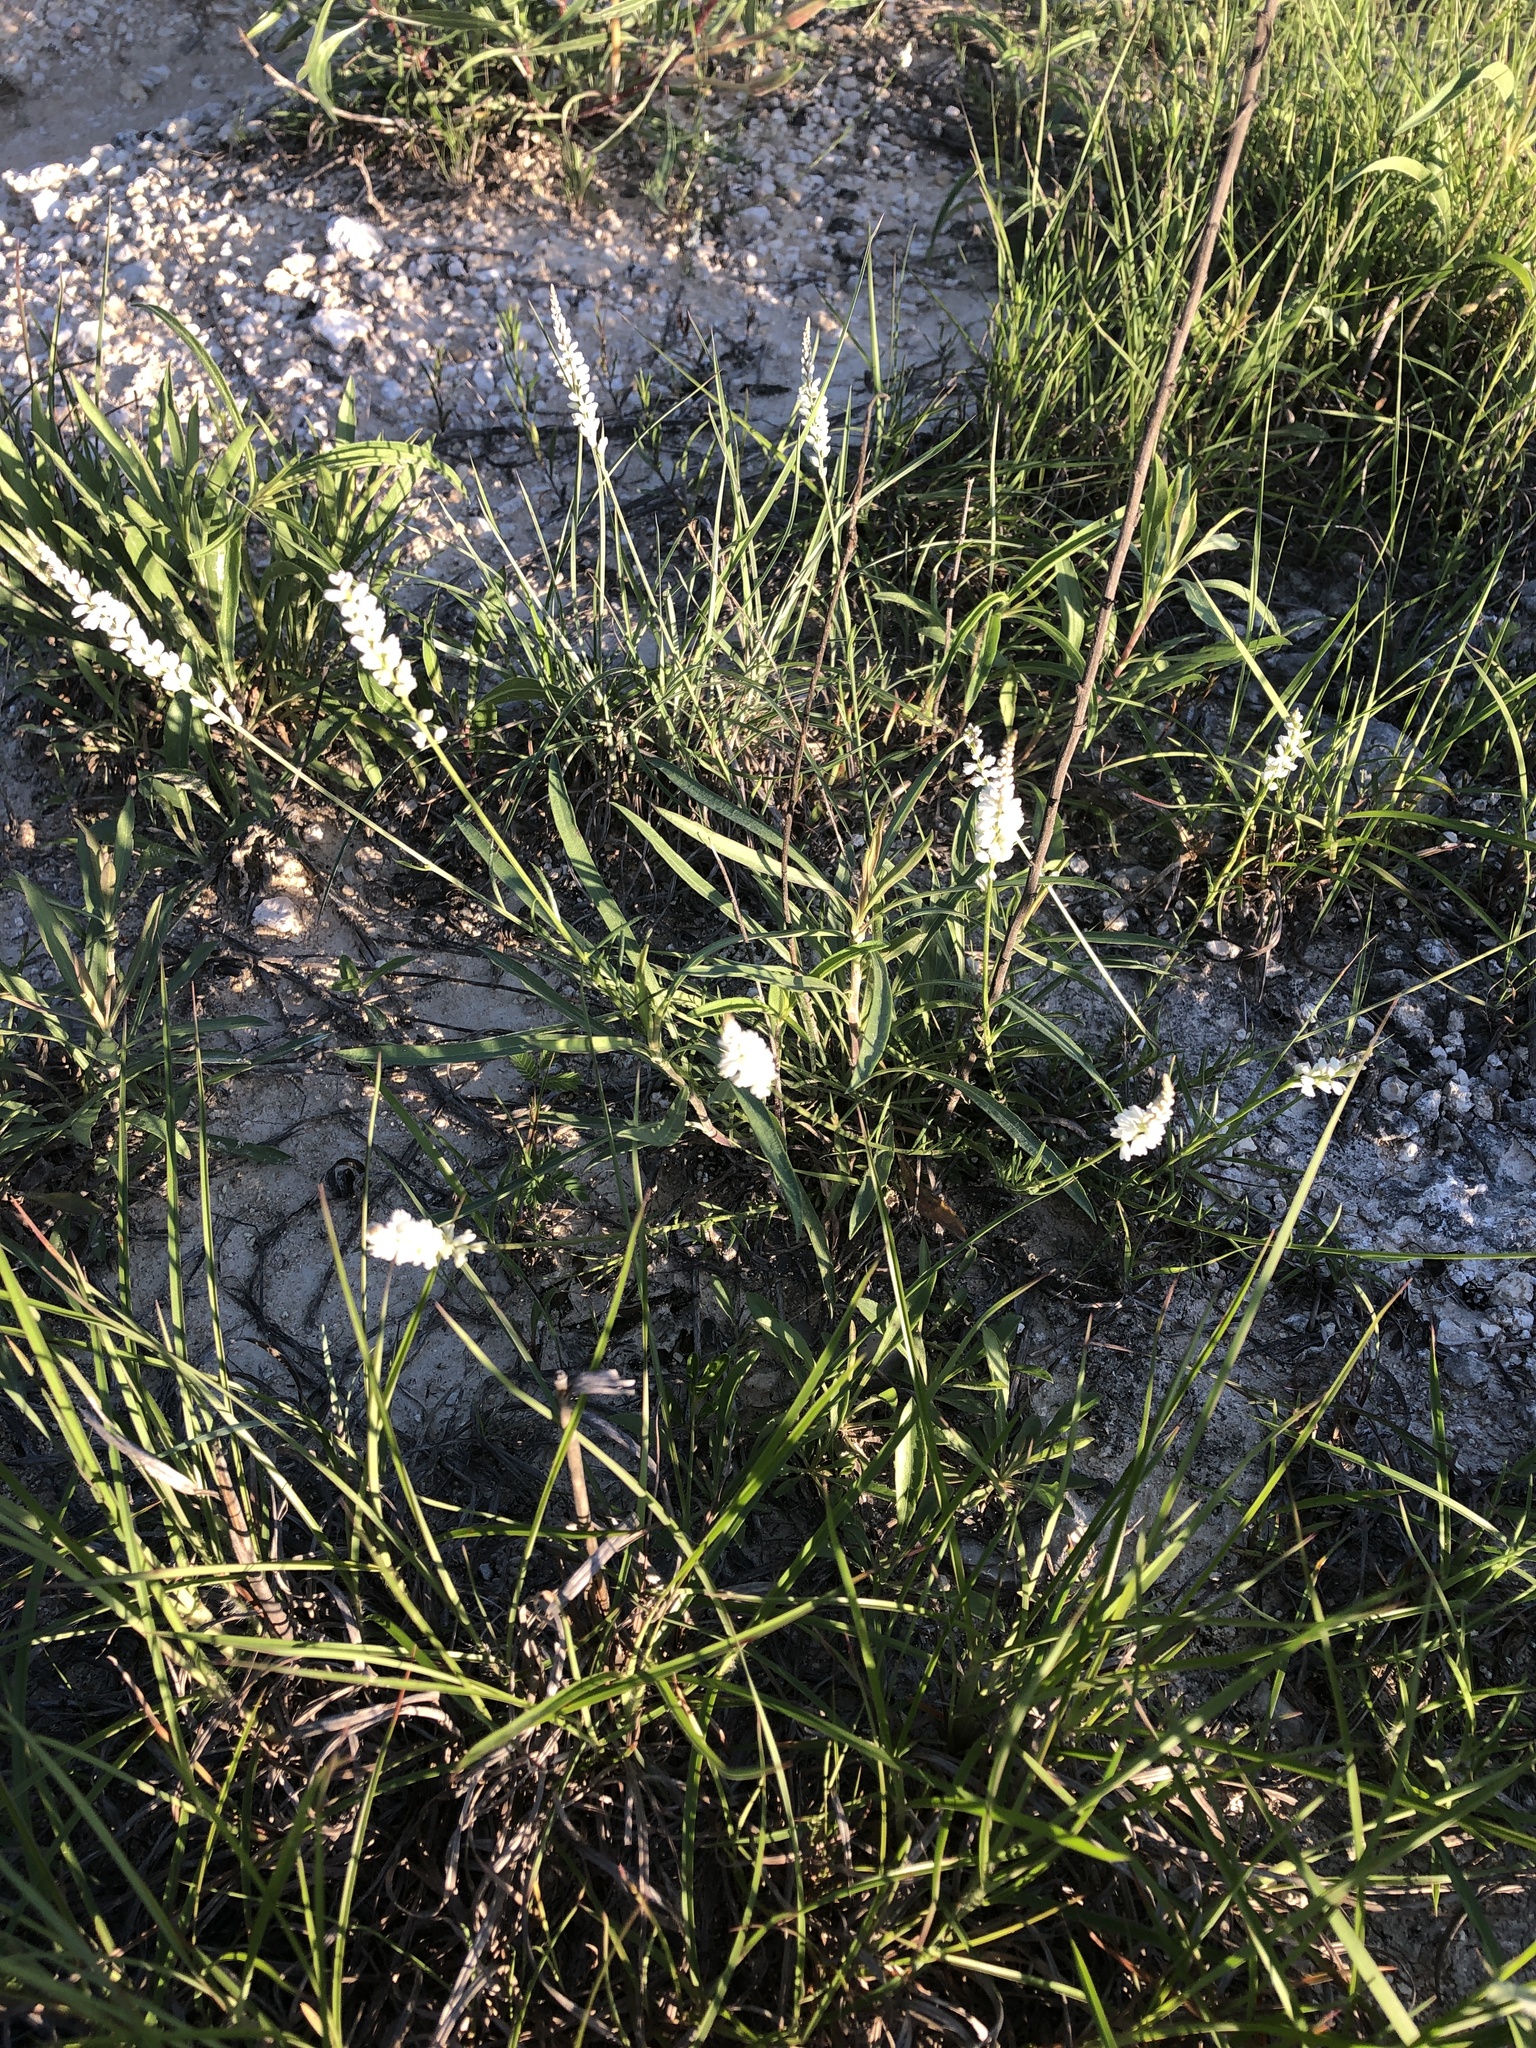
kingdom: Plantae
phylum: Tracheophyta
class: Magnoliopsida
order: Fabales
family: Polygalaceae
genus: Polygala
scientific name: Polygala alba
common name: White milkwort
